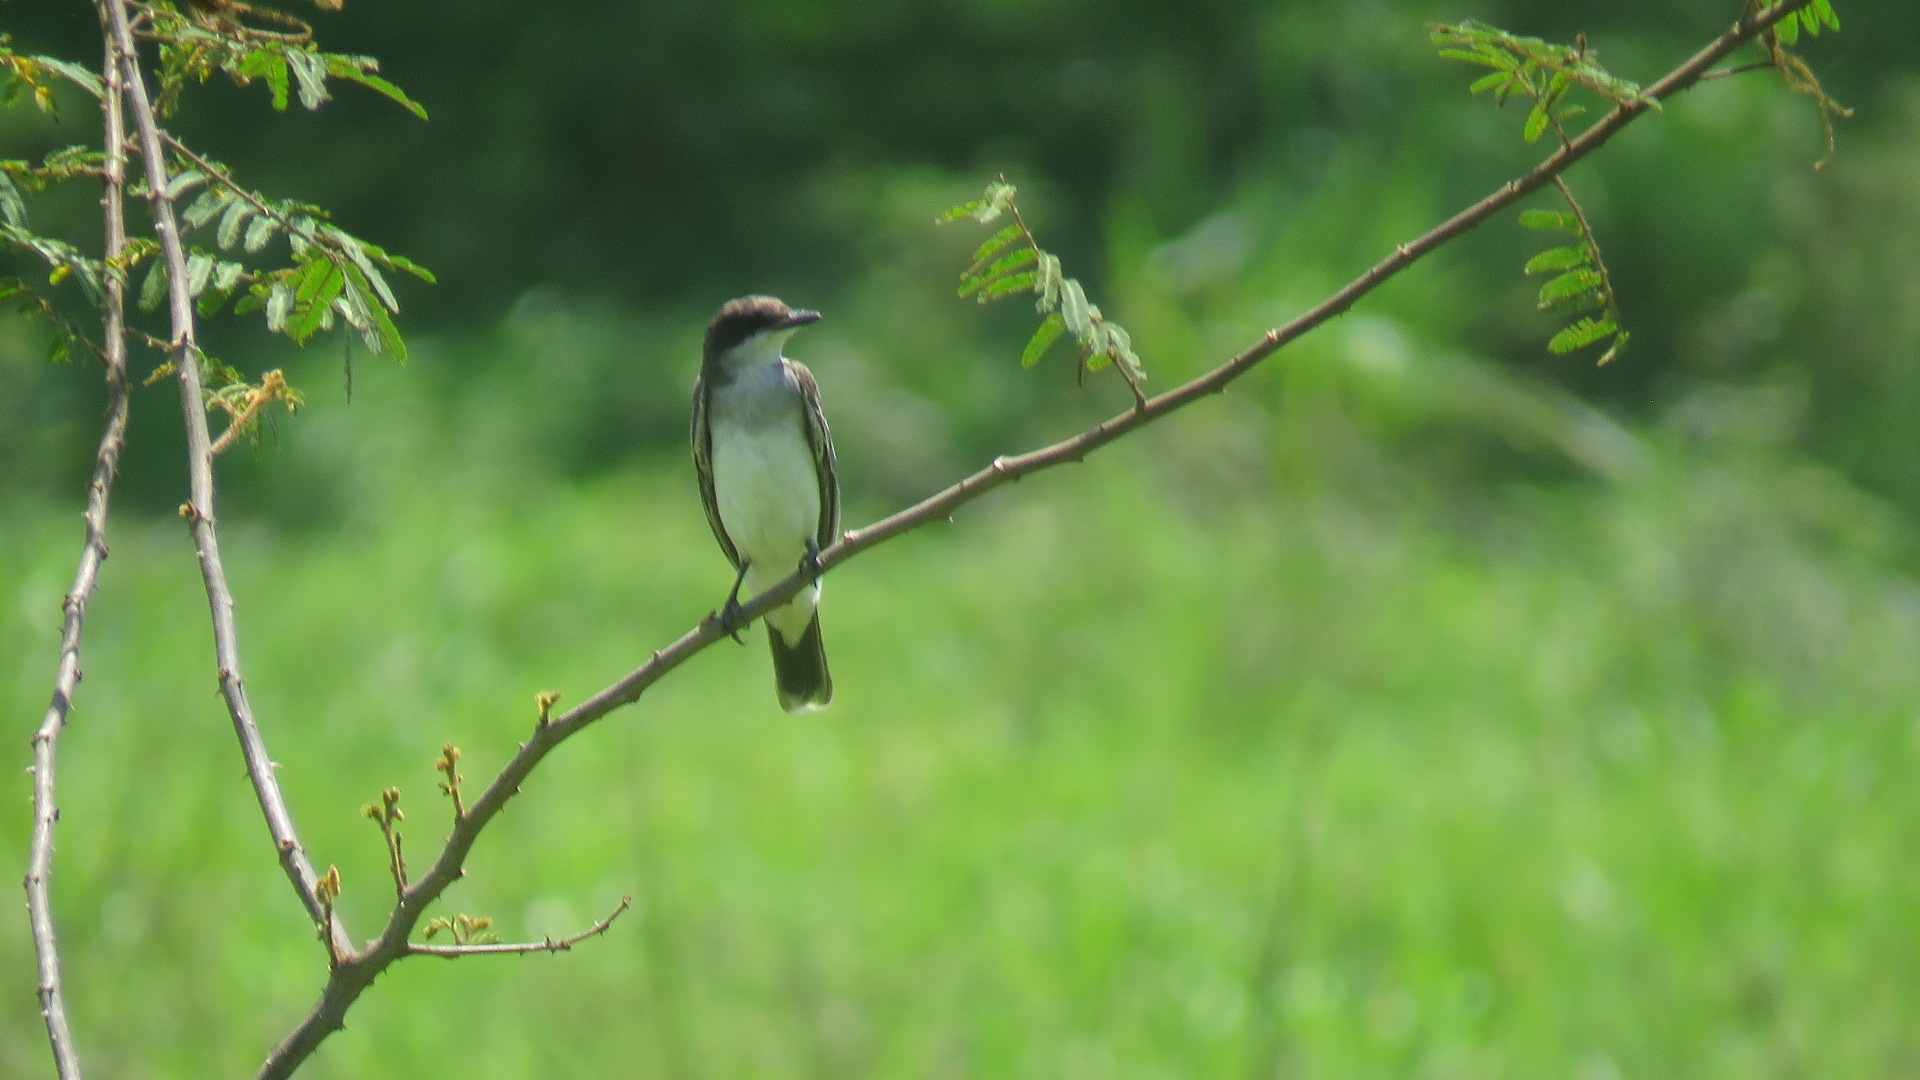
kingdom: Animalia
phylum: Chordata
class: Aves
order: Passeriformes
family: Tyrannidae
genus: Tyrannus
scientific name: Tyrannus tyrannus
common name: Eastern kingbird
